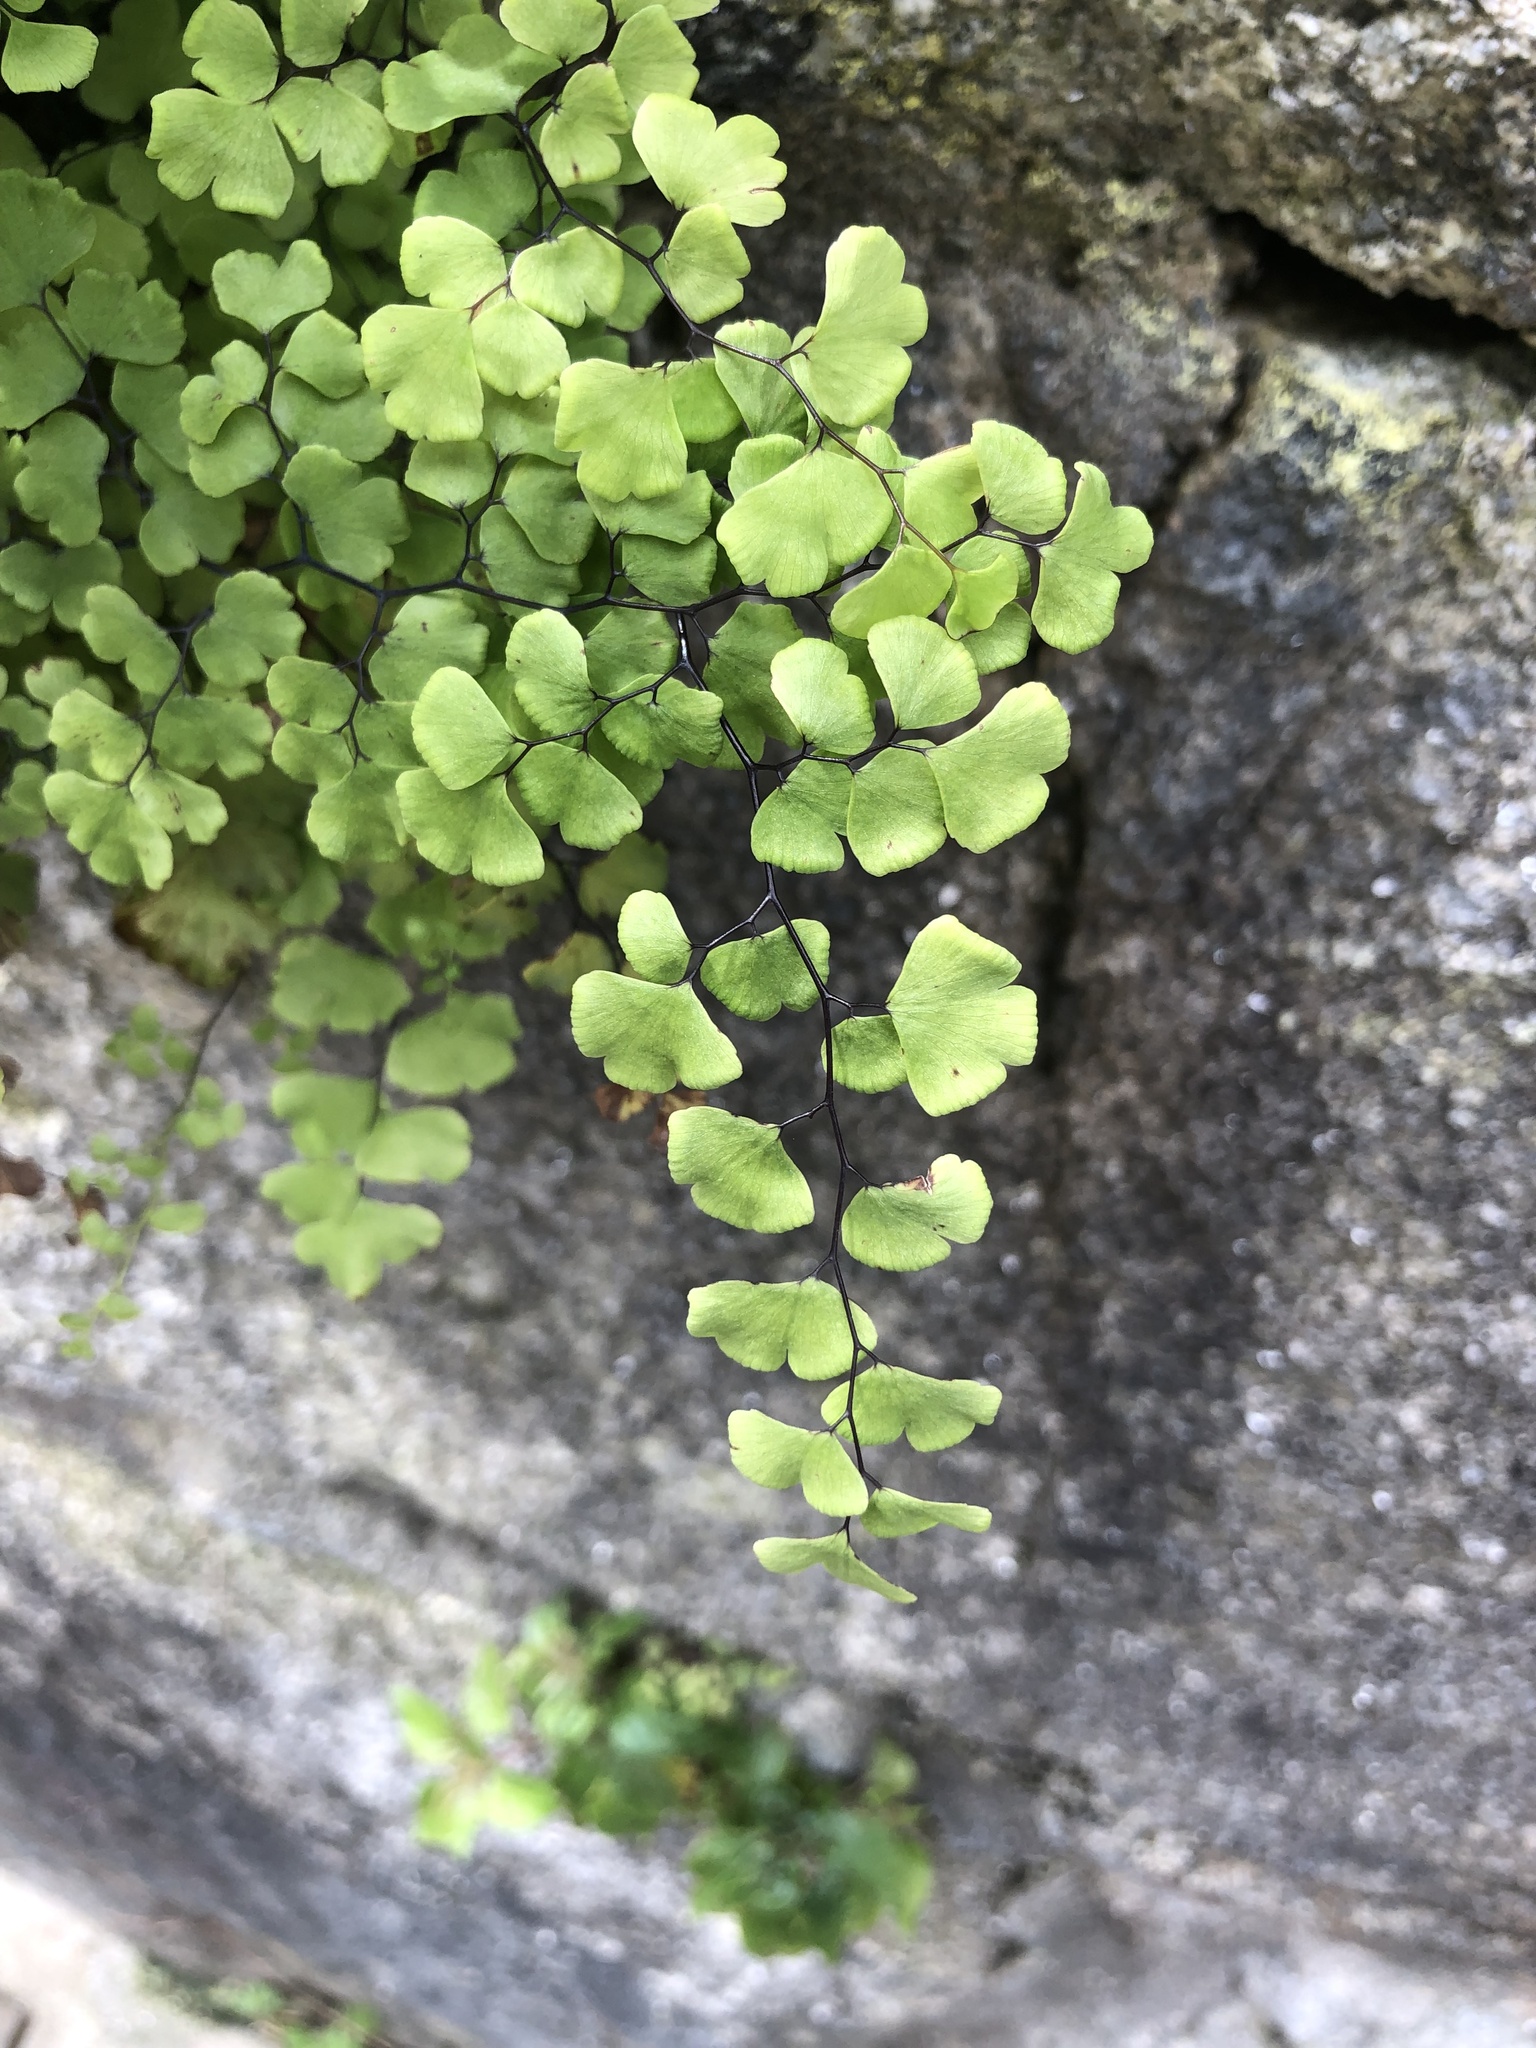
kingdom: Plantae
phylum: Tracheophyta
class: Polypodiopsida
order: Polypodiales
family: Pteridaceae
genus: Adiantum
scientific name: Adiantum capillus-veneris
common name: Maidenhair fern
